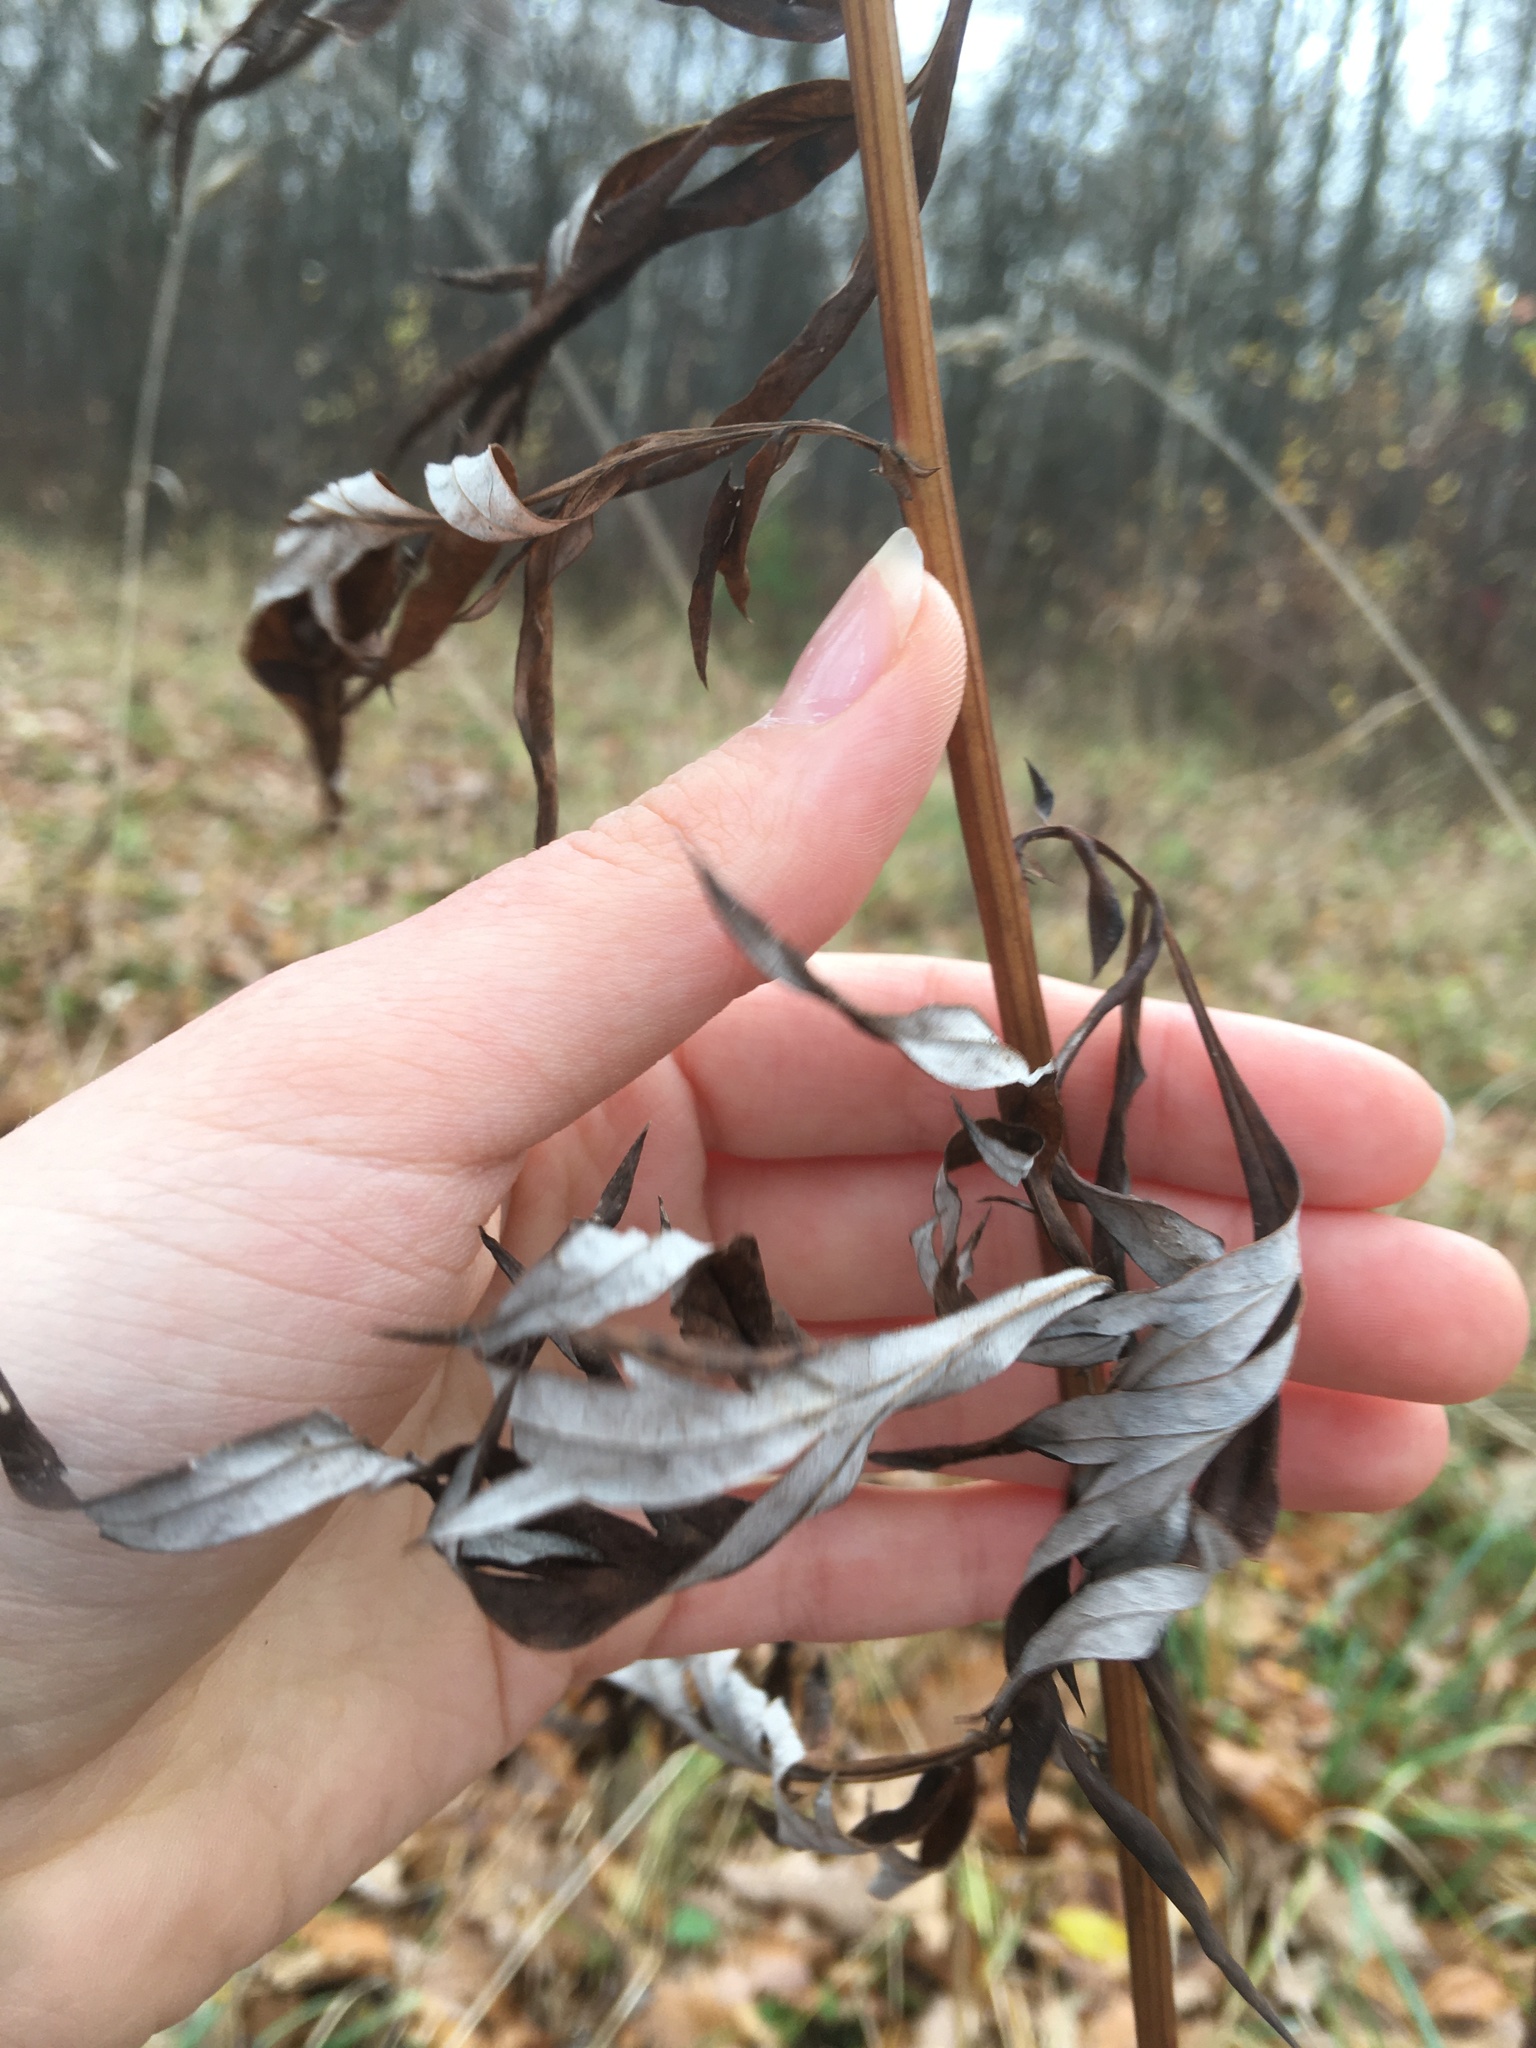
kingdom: Plantae
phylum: Tracheophyta
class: Magnoliopsida
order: Asterales
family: Asteraceae
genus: Artemisia
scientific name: Artemisia vulgaris
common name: Mugwort
